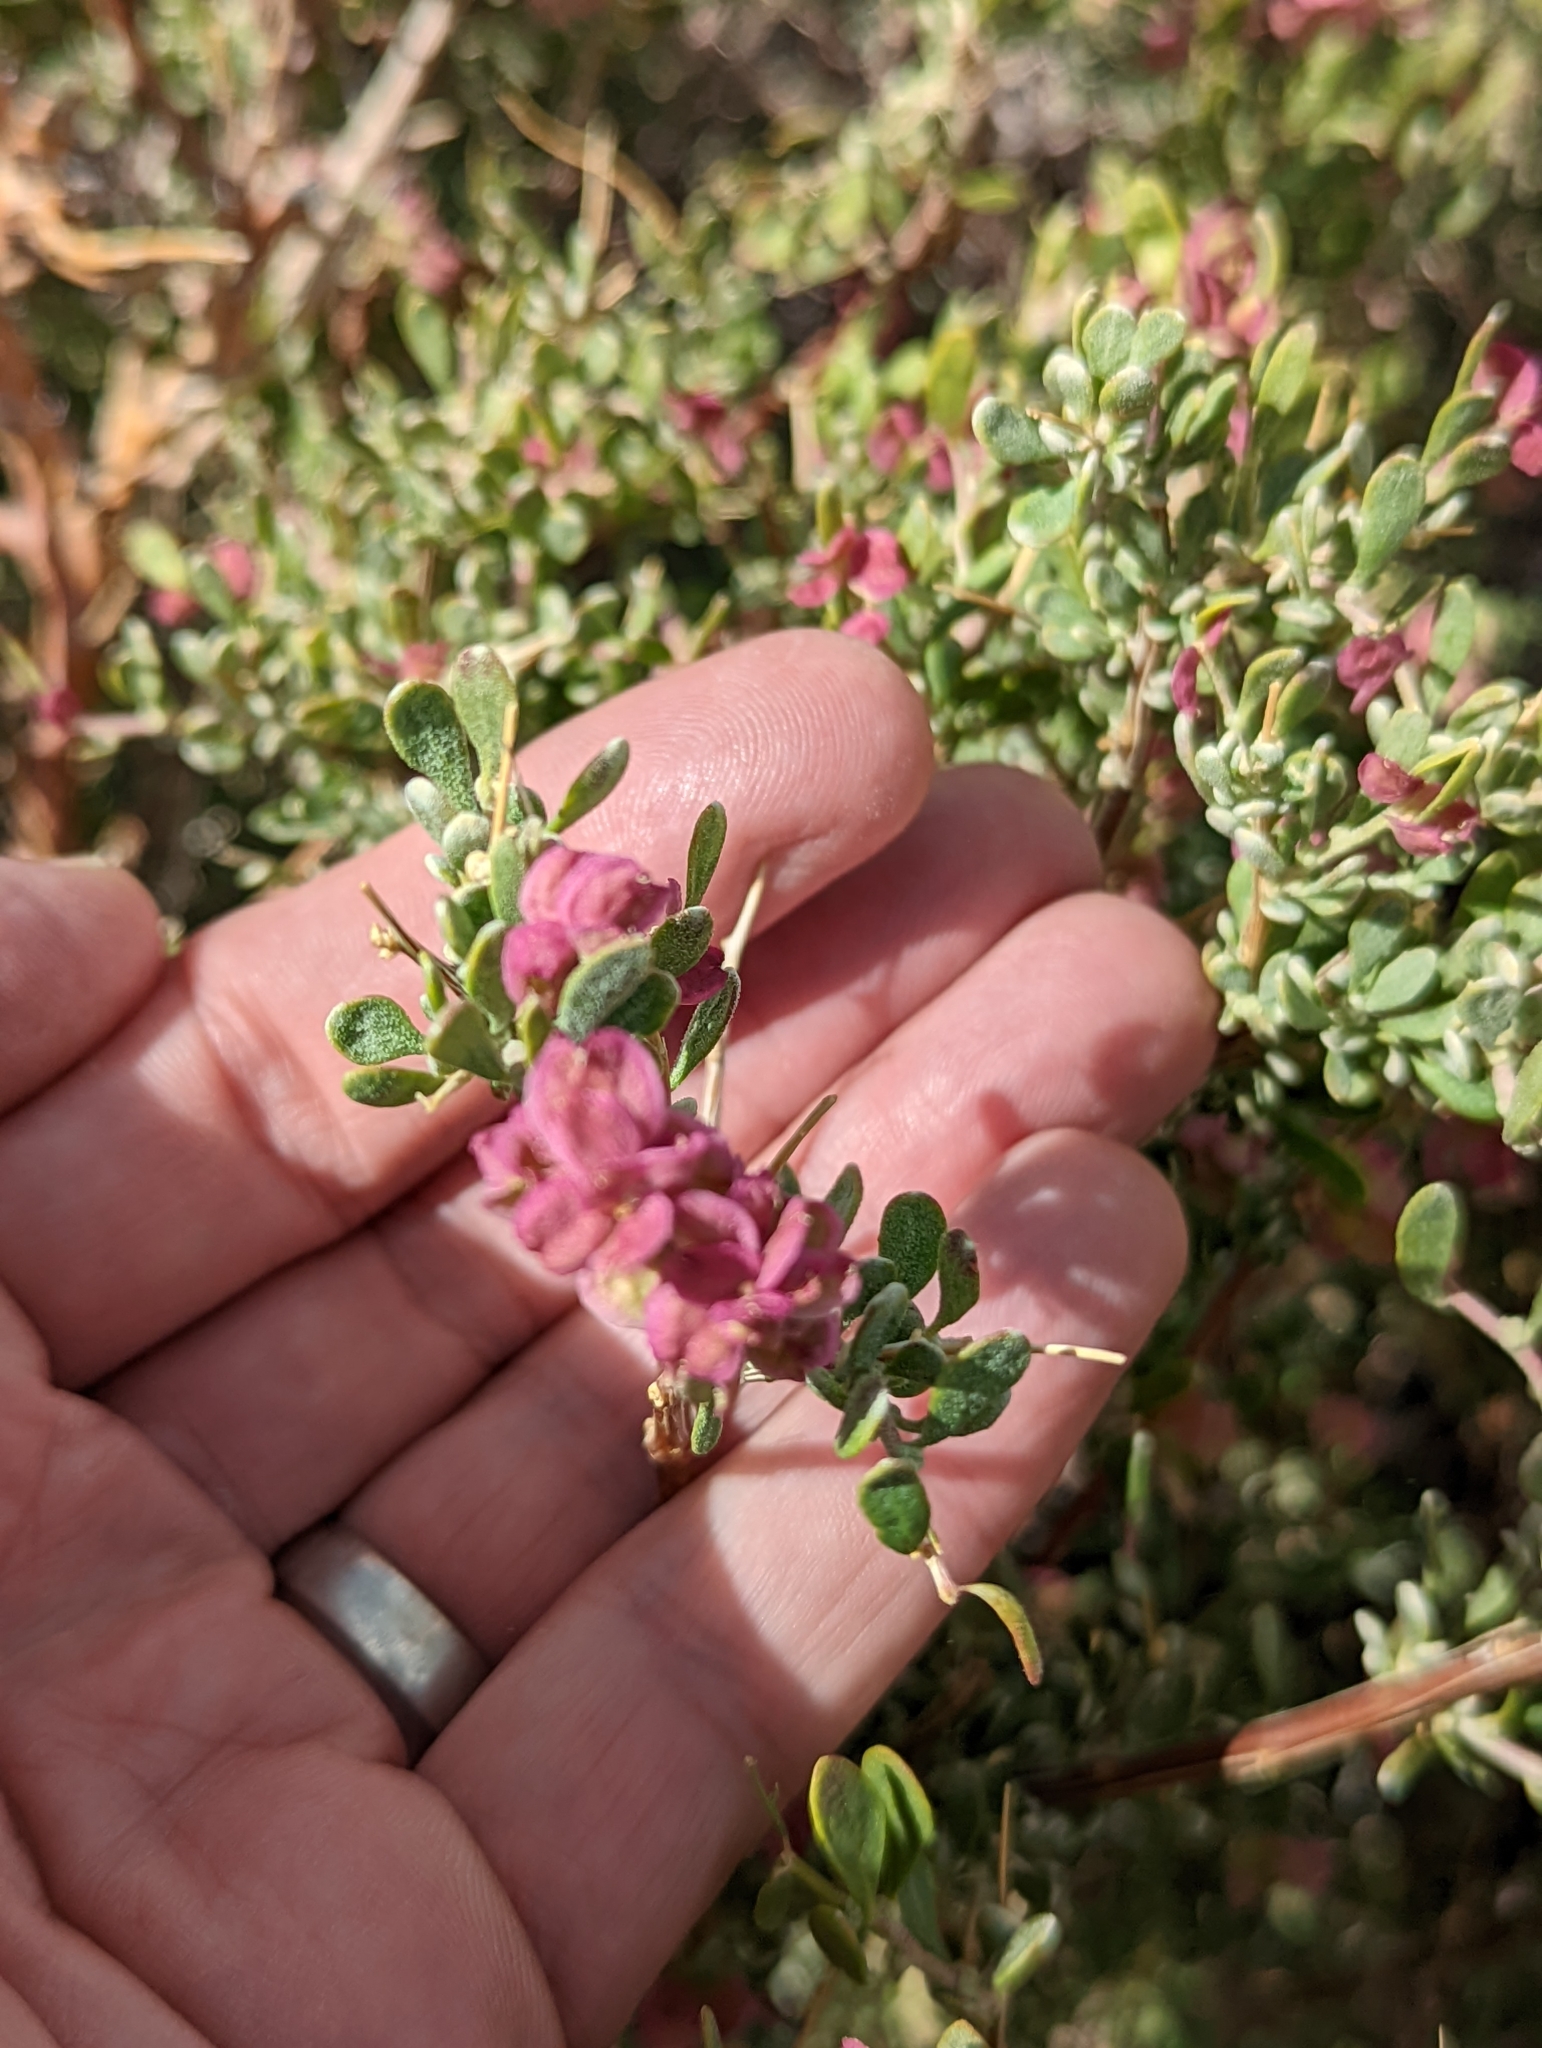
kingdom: Plantae
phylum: Tracheophyta
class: Magnoliopsida
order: Caryophyllales
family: Amaranthaceae
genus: Grayia
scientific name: Grayia spinosa
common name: Spiny hopsage
